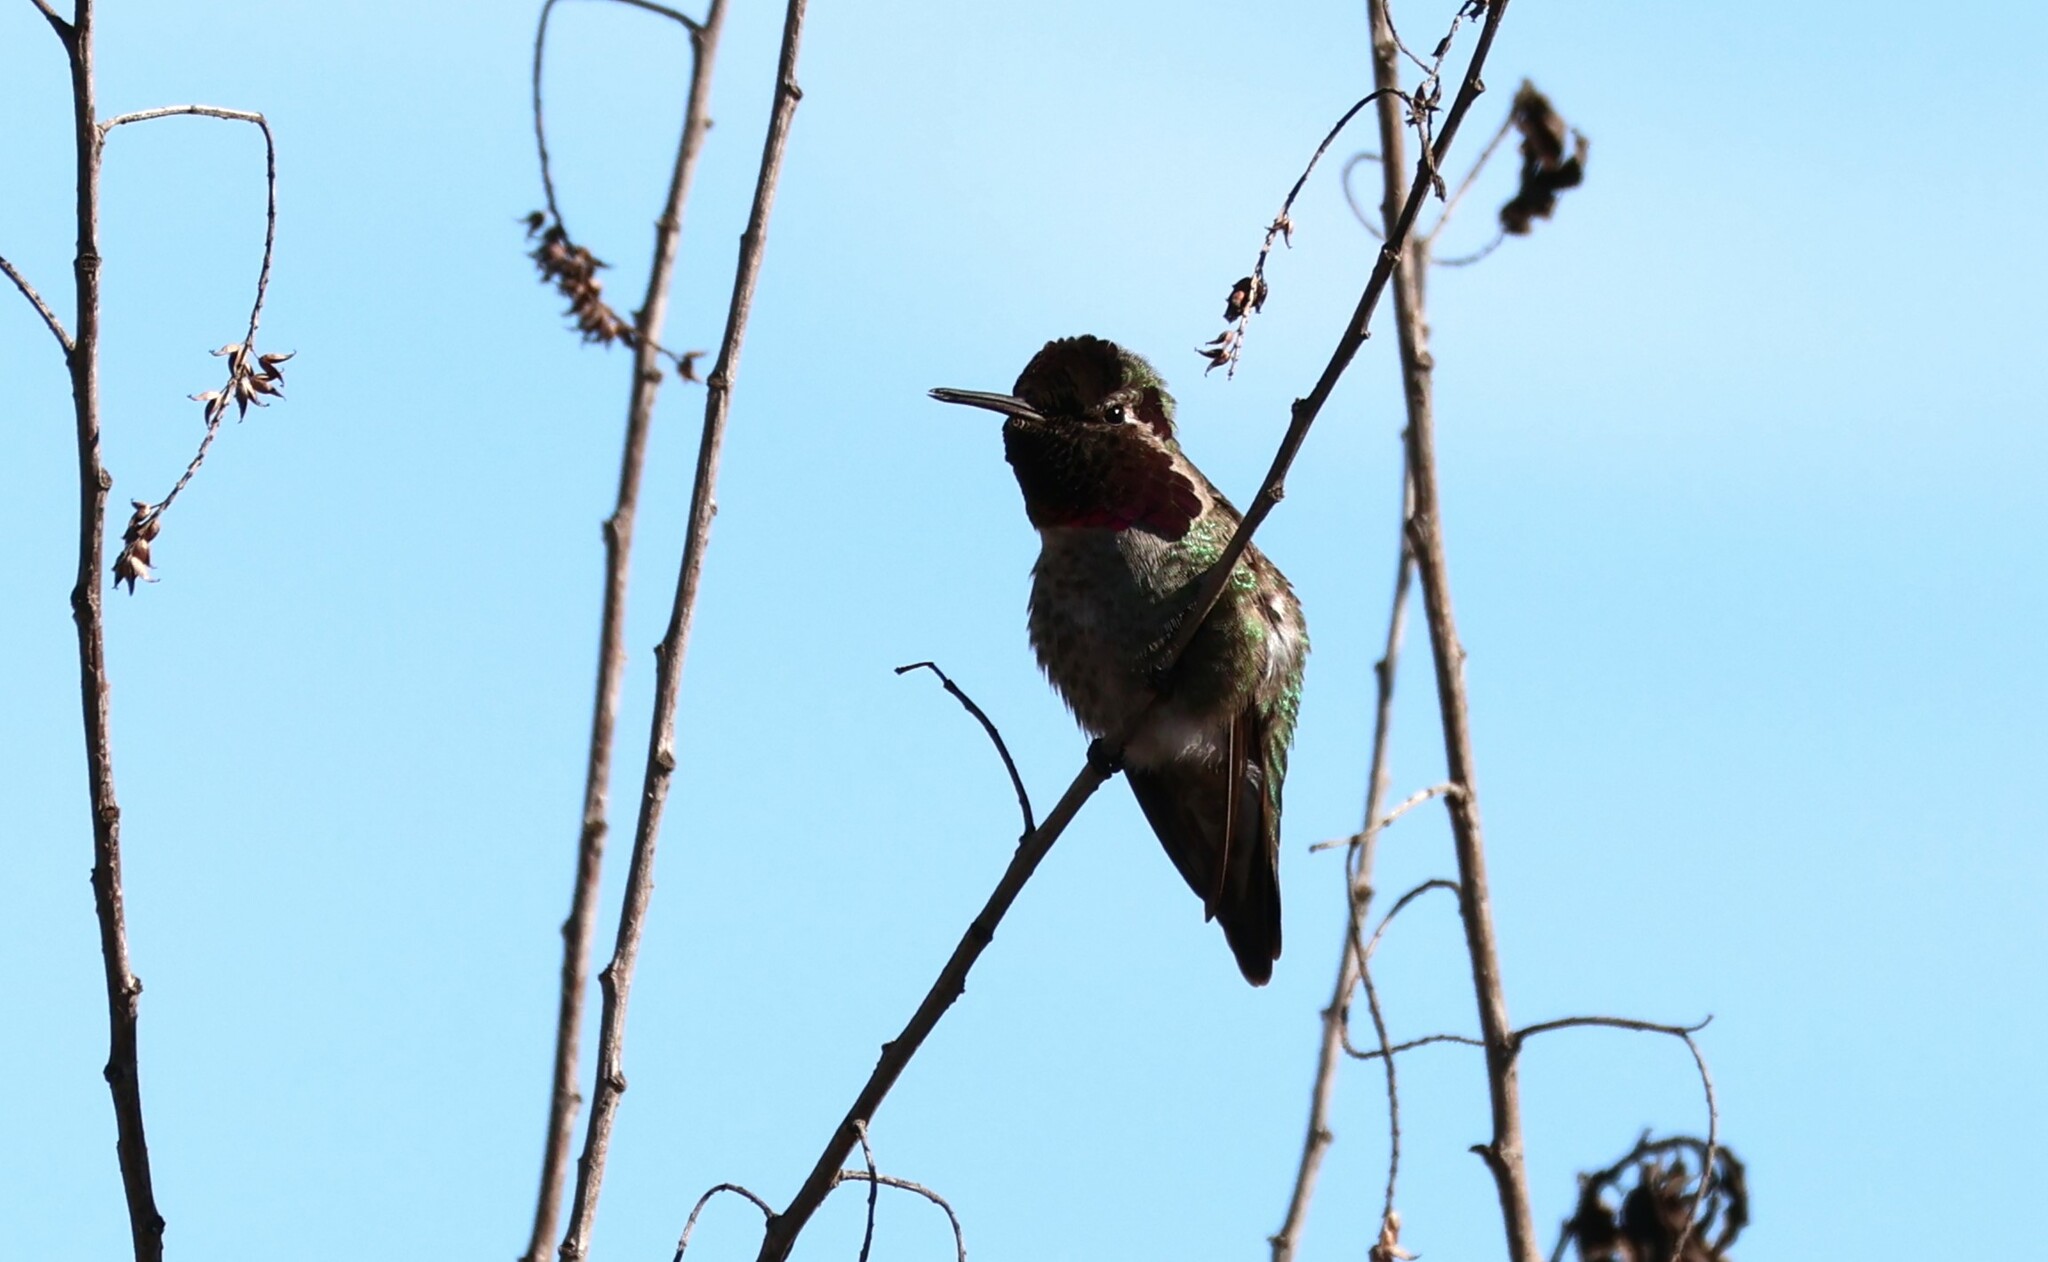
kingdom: Animalia
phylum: Chordata
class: Aves
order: Apodiformes
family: Trochilidae
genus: Calypte
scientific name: Calypte anna
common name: Anna's hummingbird
